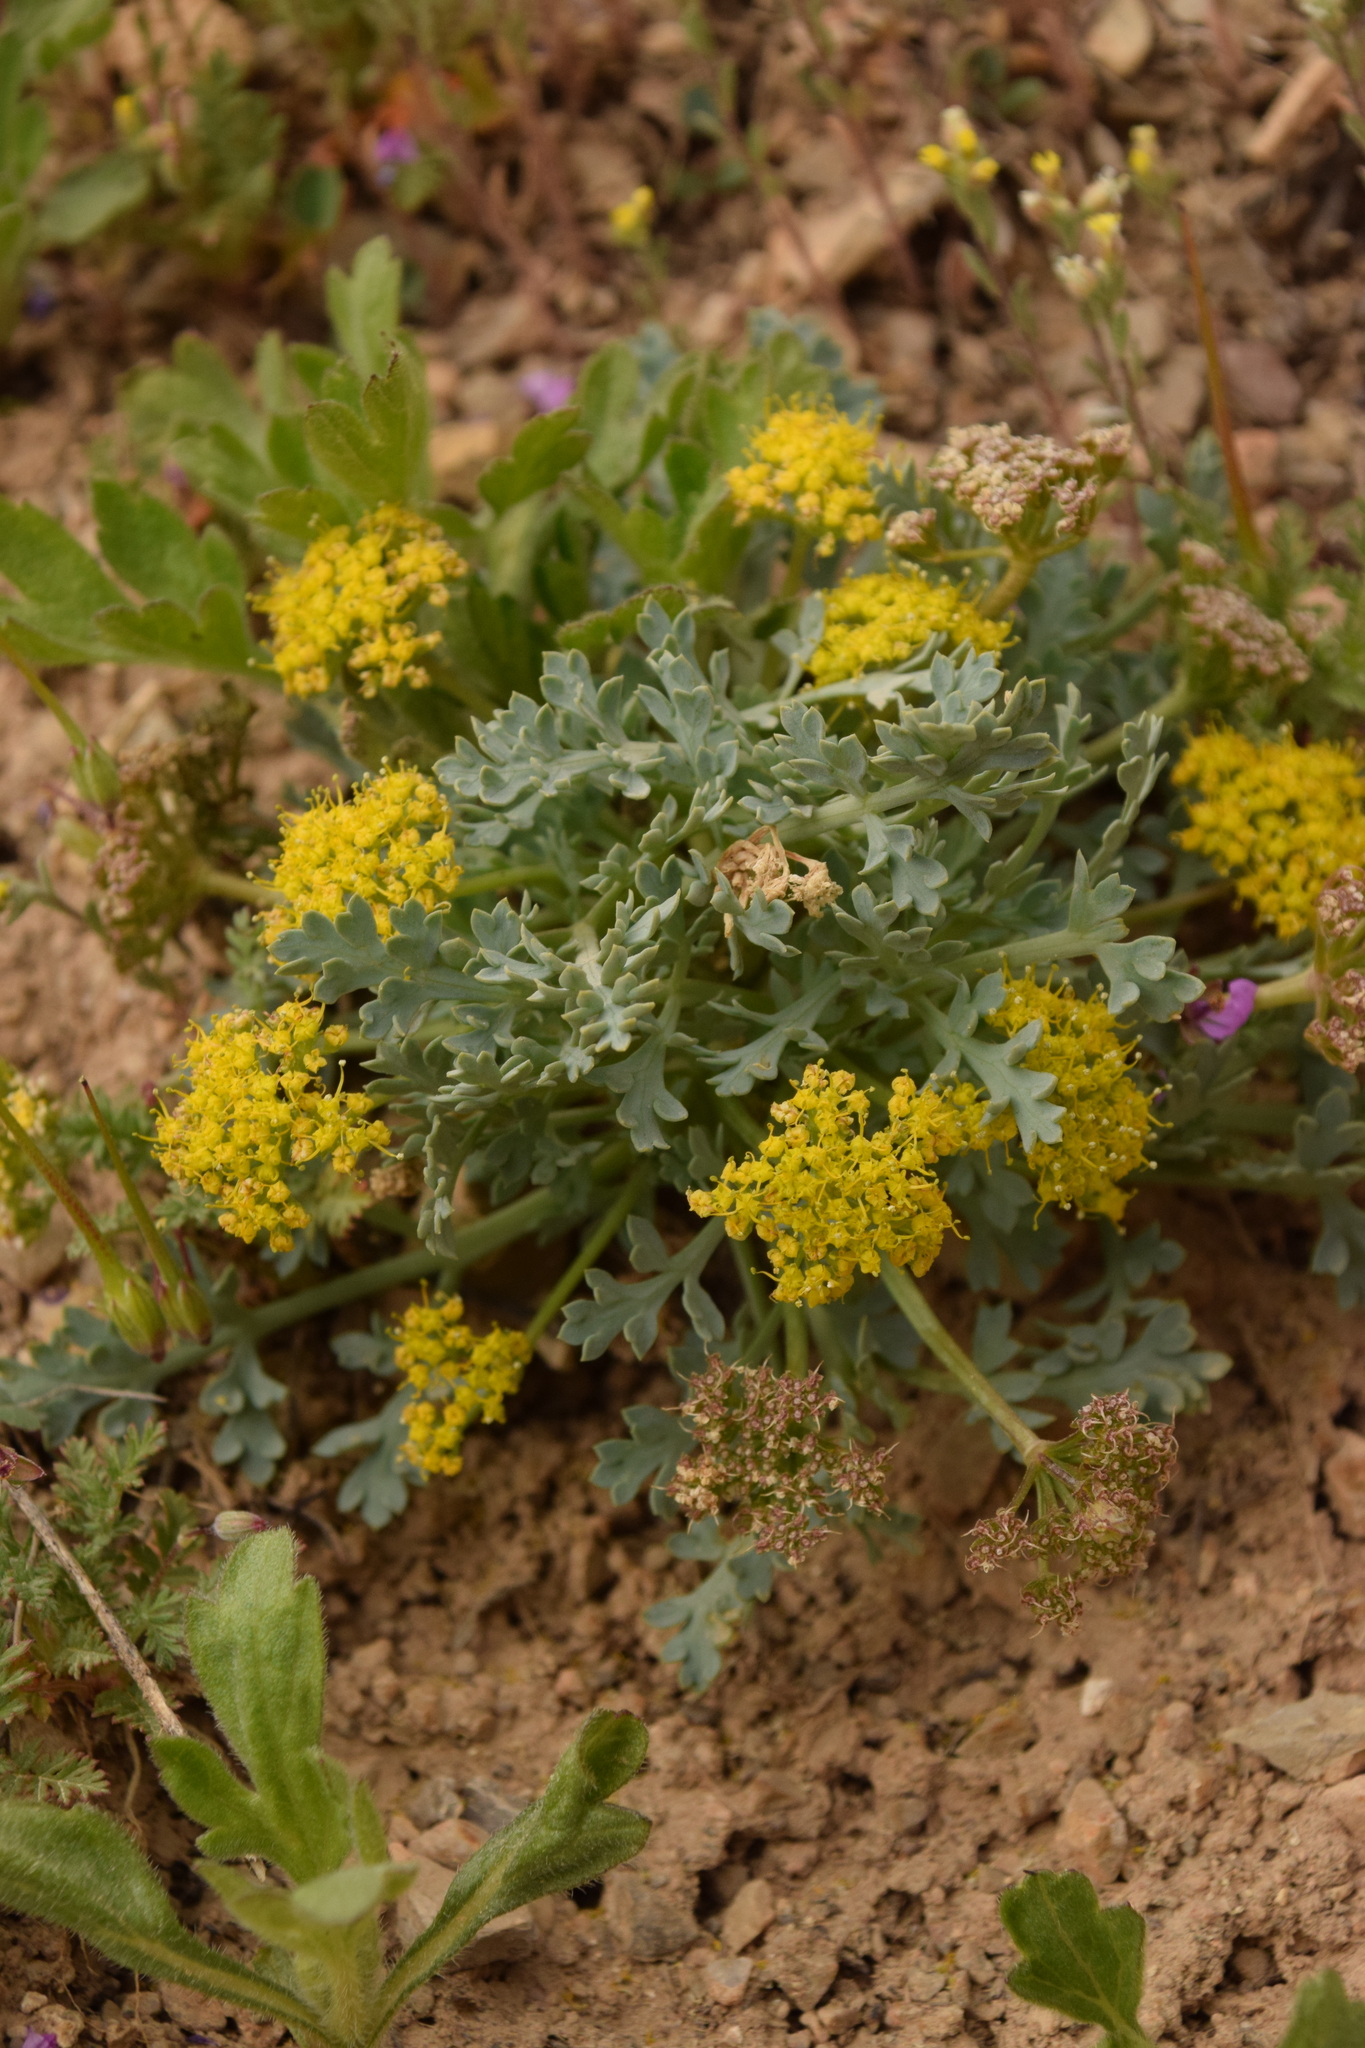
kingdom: Plantae
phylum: Tracheophyta
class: Magnoliopsida
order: Apiales
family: Apiaceae
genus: Aulospermum
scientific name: Aulospermum longipes
